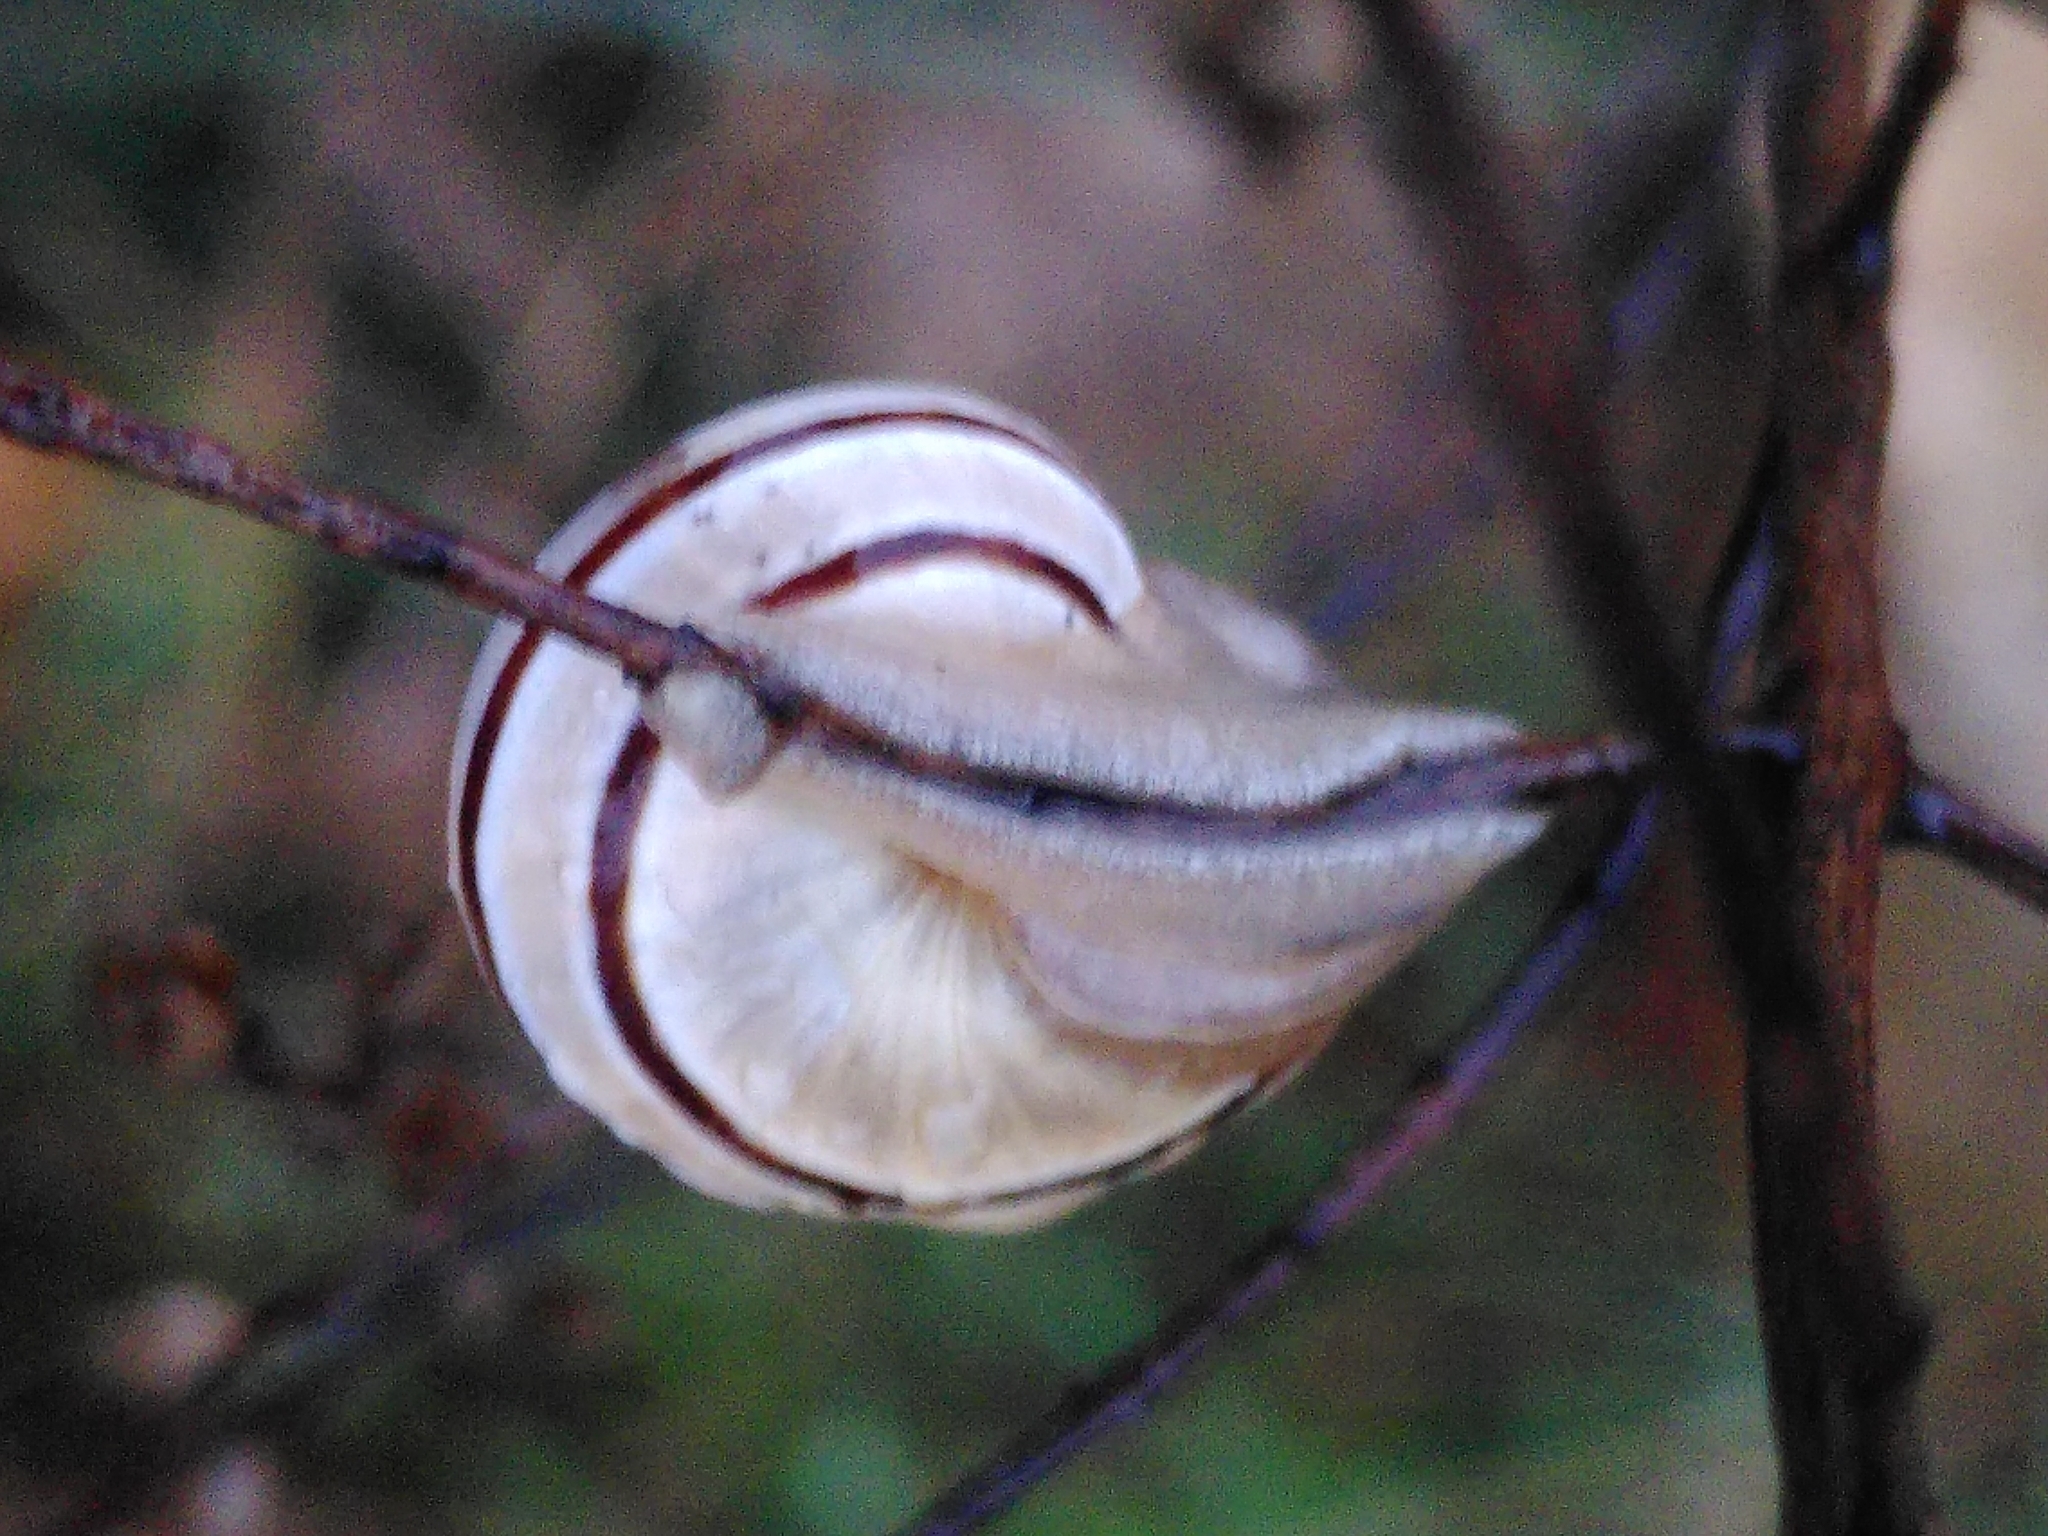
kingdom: Animalia
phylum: Mollusca
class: Gastropoda
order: Stylommatophora
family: Helicidae
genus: Pseudotachea
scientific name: Pseudotachea splendida
